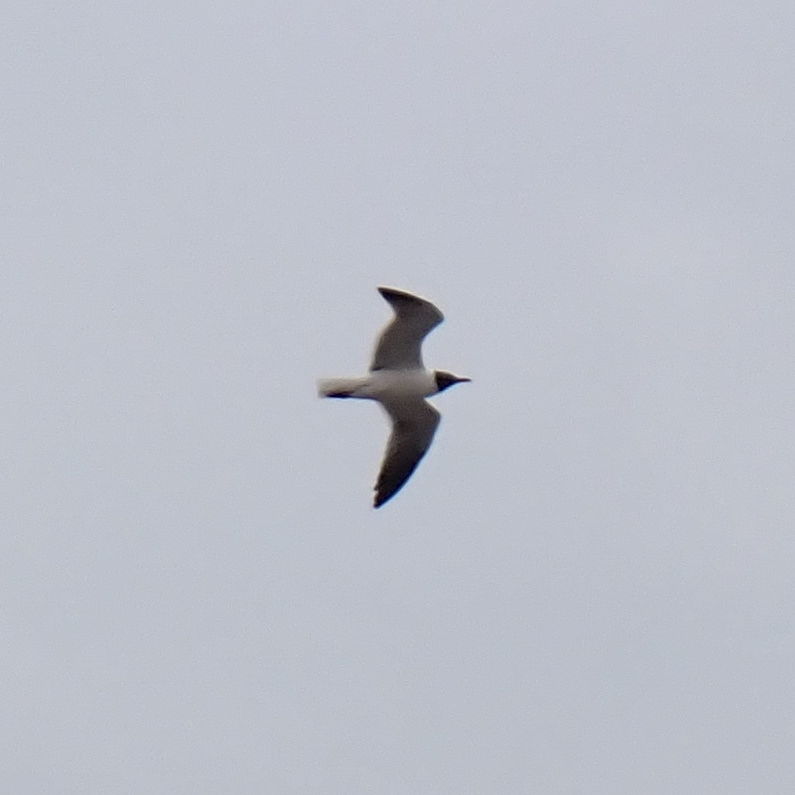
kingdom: Animalia
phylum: Chordata
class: Aves
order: Charadriiformes
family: Laridae
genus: Leucophaeus
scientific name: Leucophaeus atricilla
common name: Laughing gull
